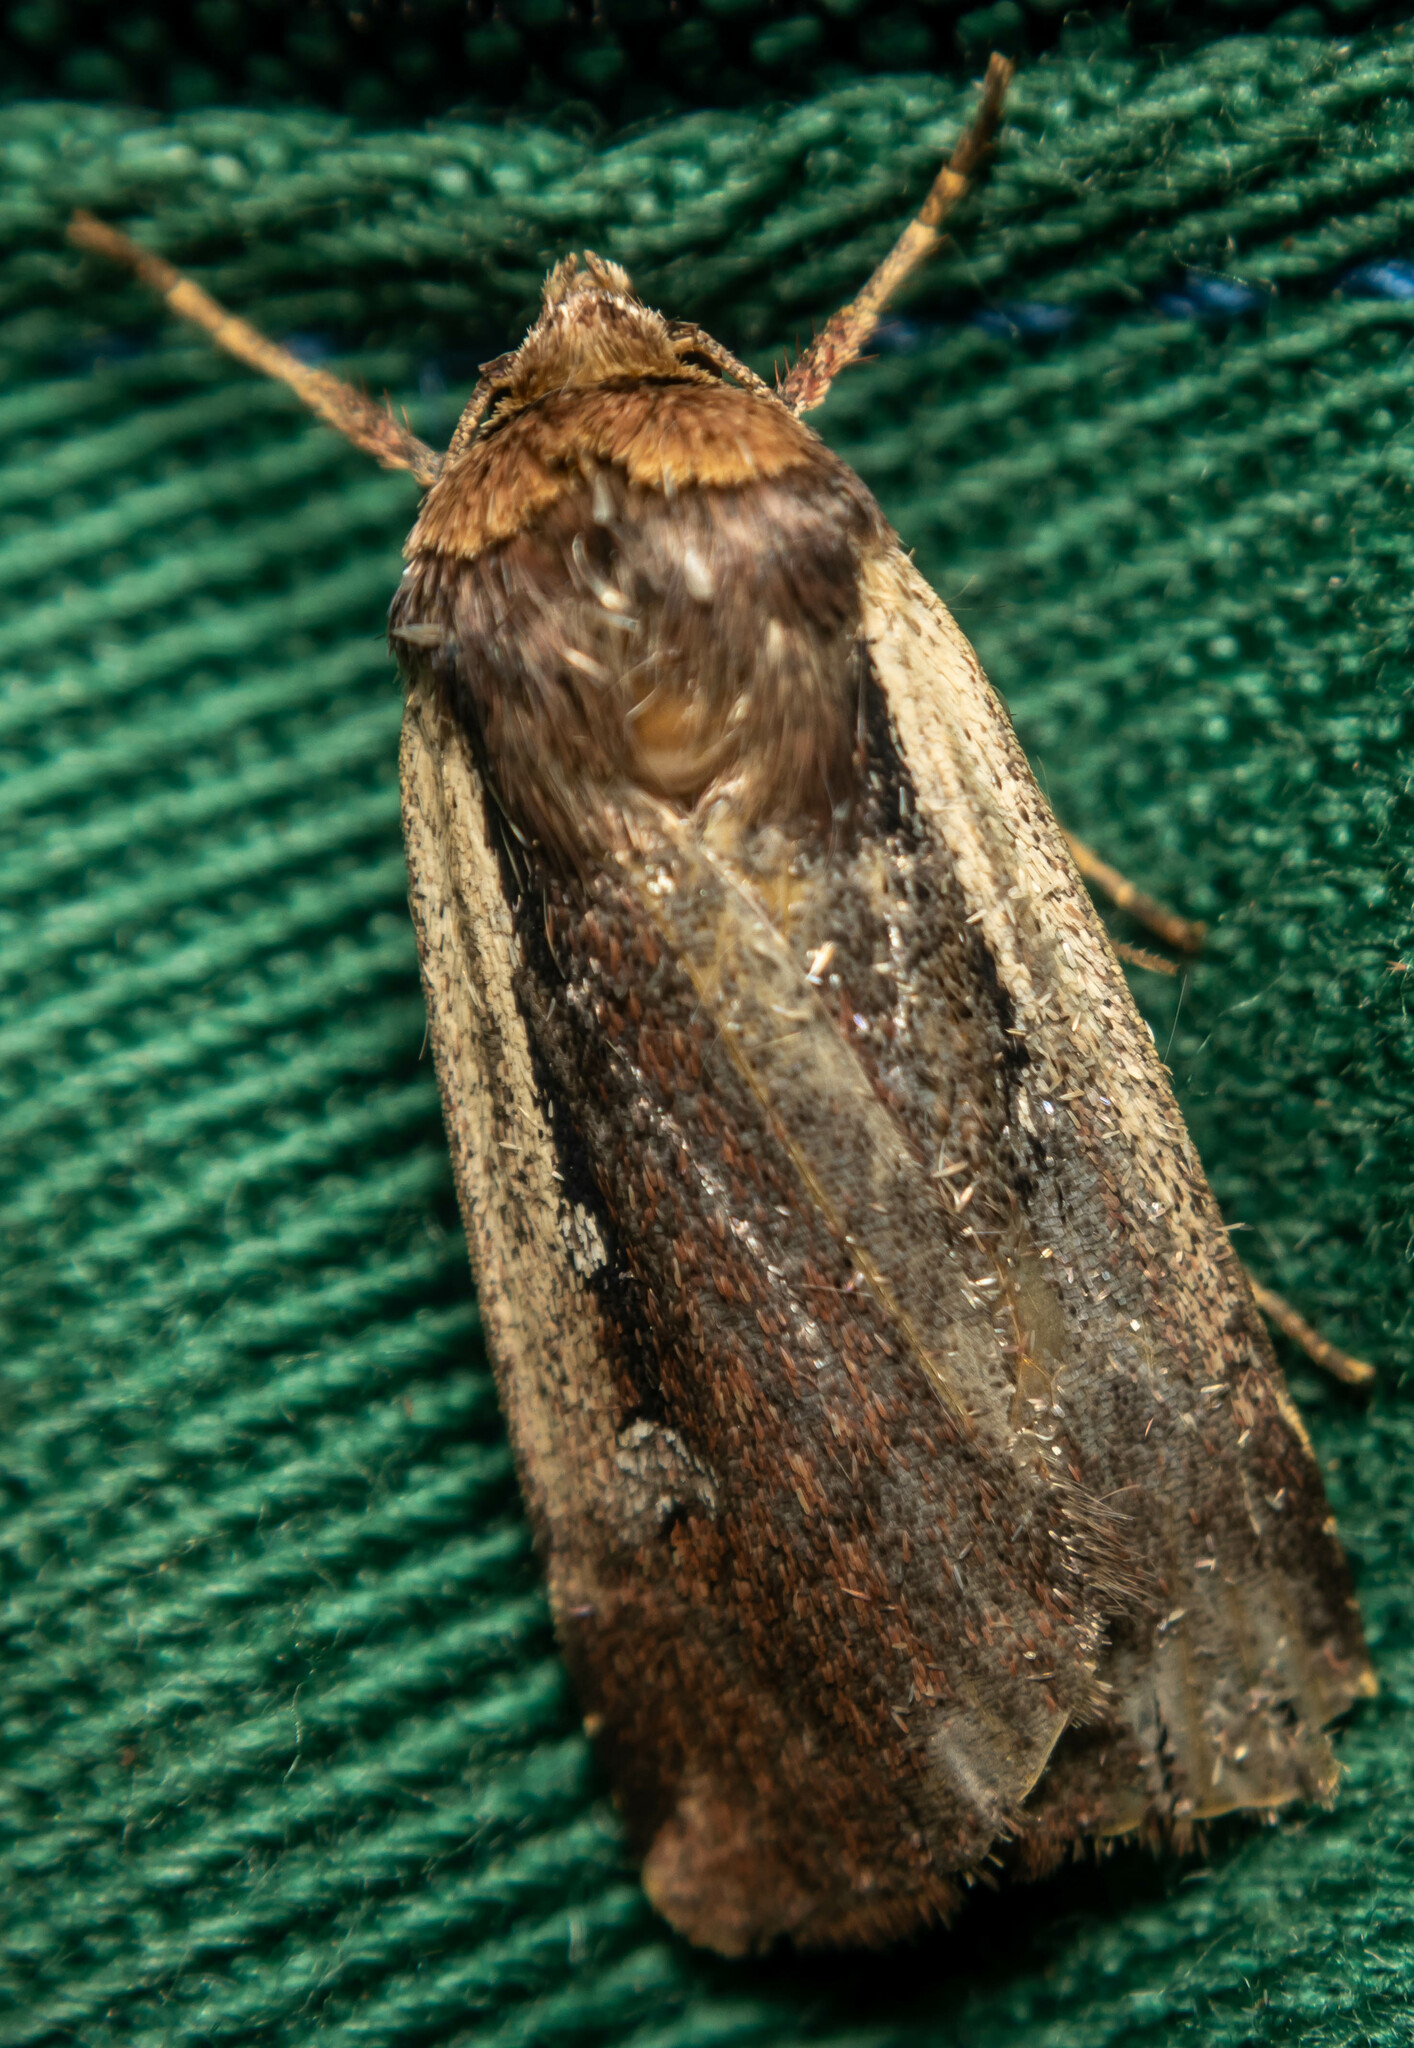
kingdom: Animalia
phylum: Arthropoda
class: Insecta
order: Lepidoptera
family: Noctuidae
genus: Ochropleura
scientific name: Ochropleura plecta
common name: Flame shoulder
